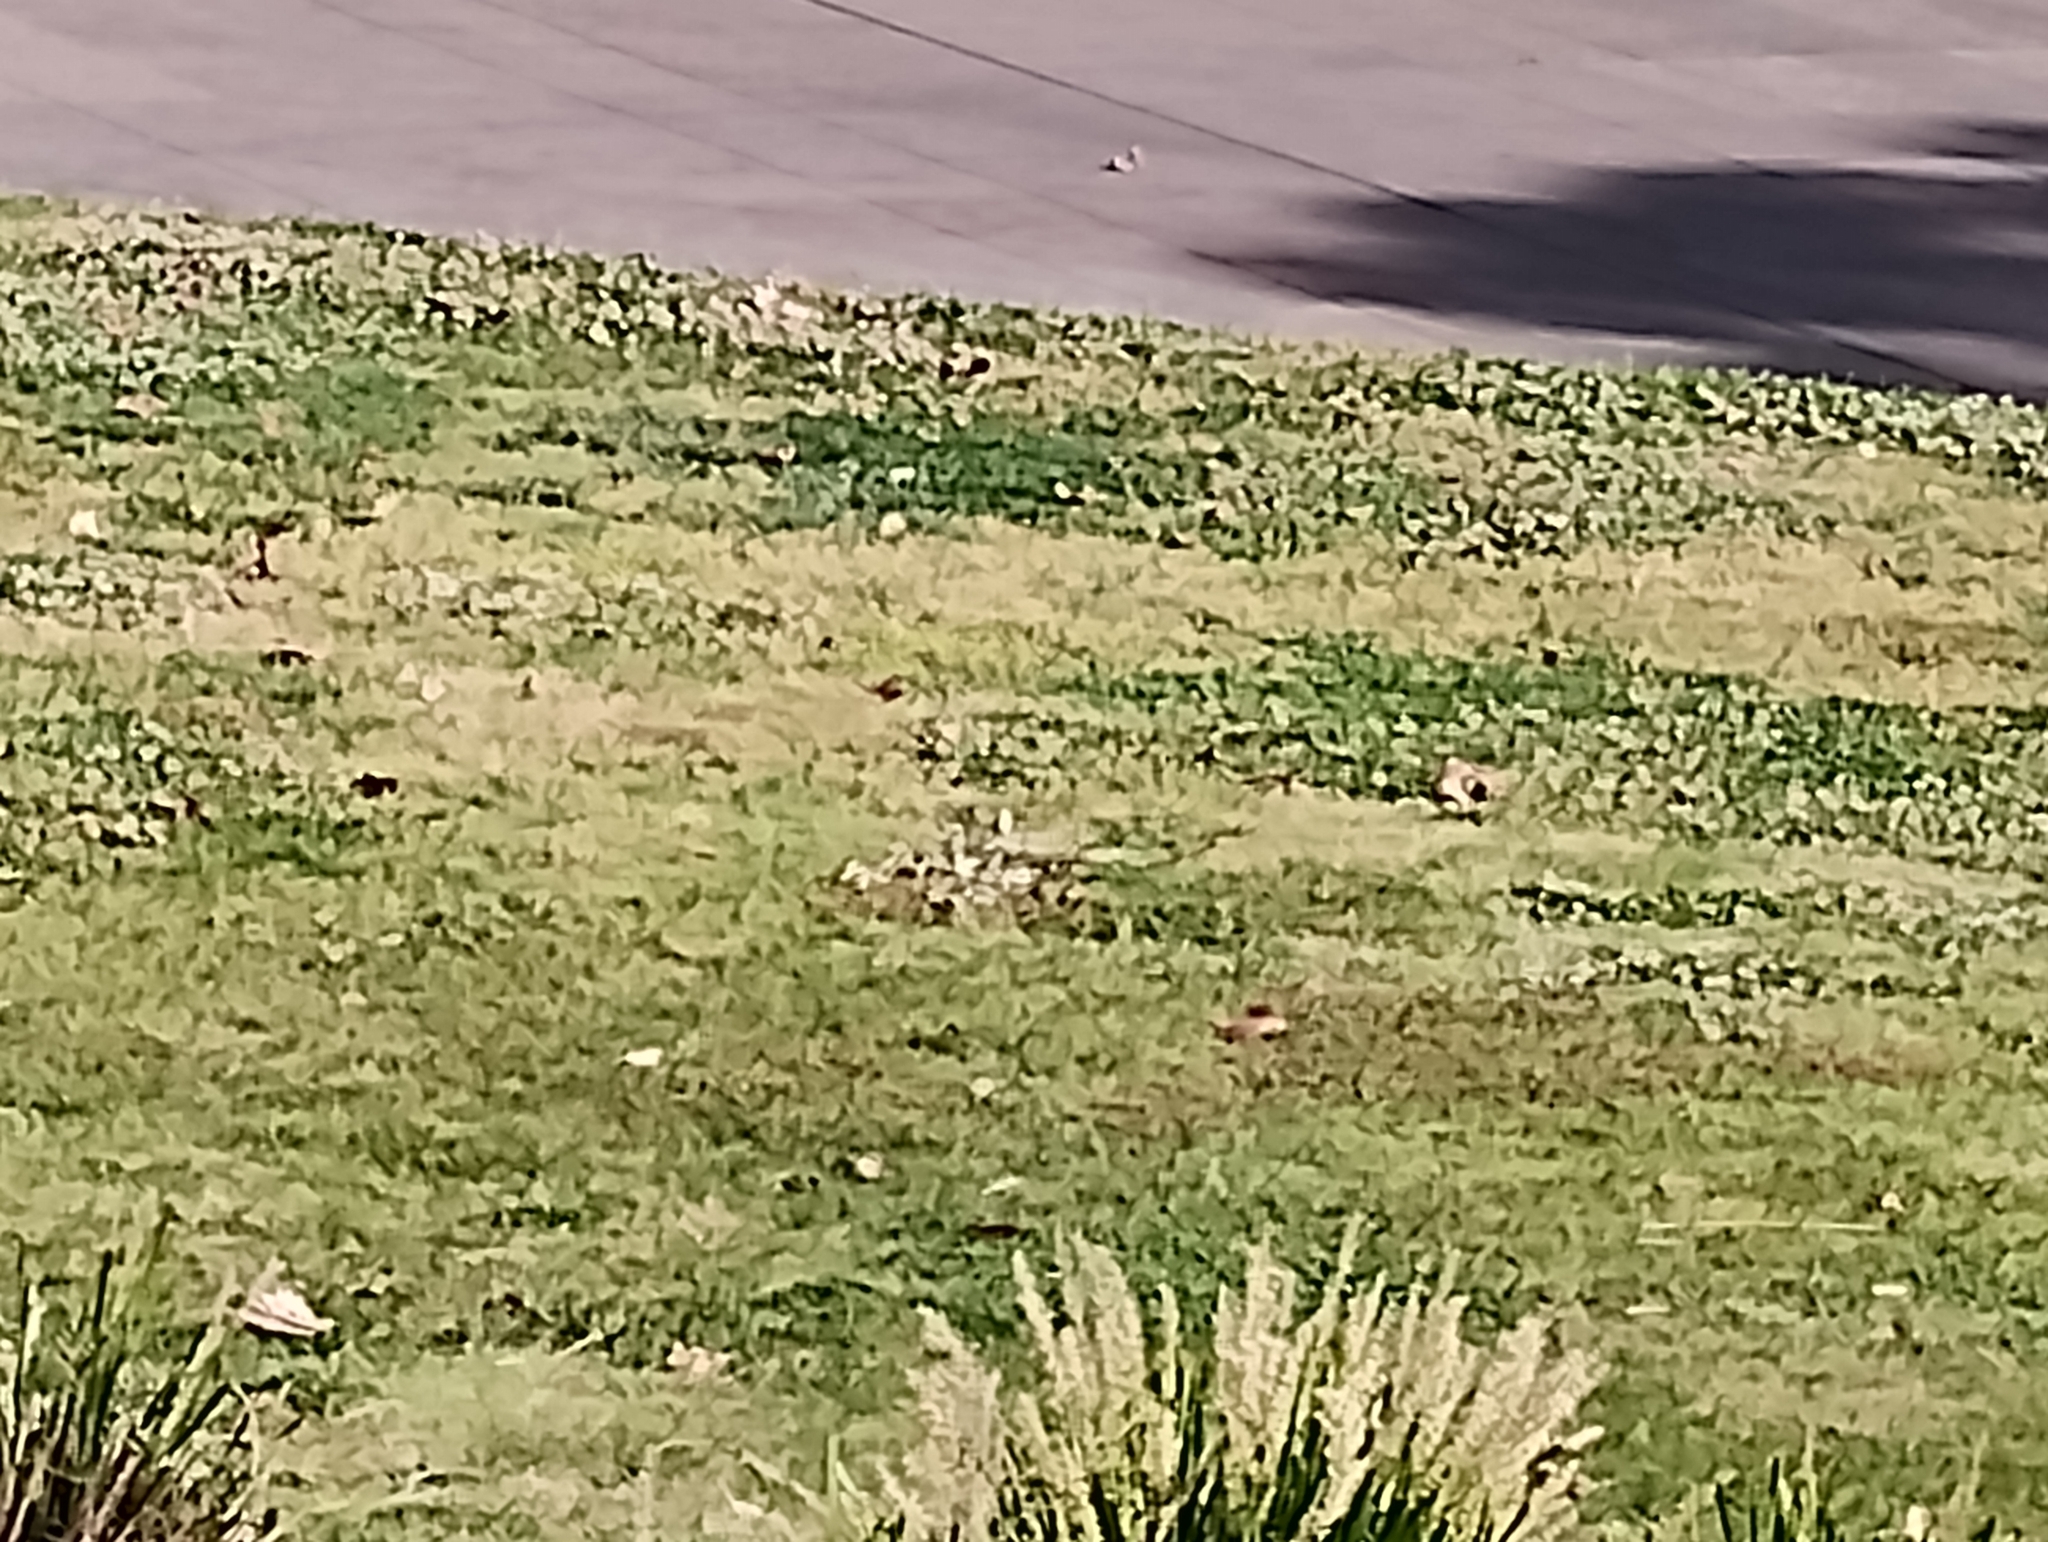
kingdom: Animalia
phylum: Chordata
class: Aves
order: Psittaciformes
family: Psittacidae
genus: Eolophus
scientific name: Eolophus roseicapilla
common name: Galah
